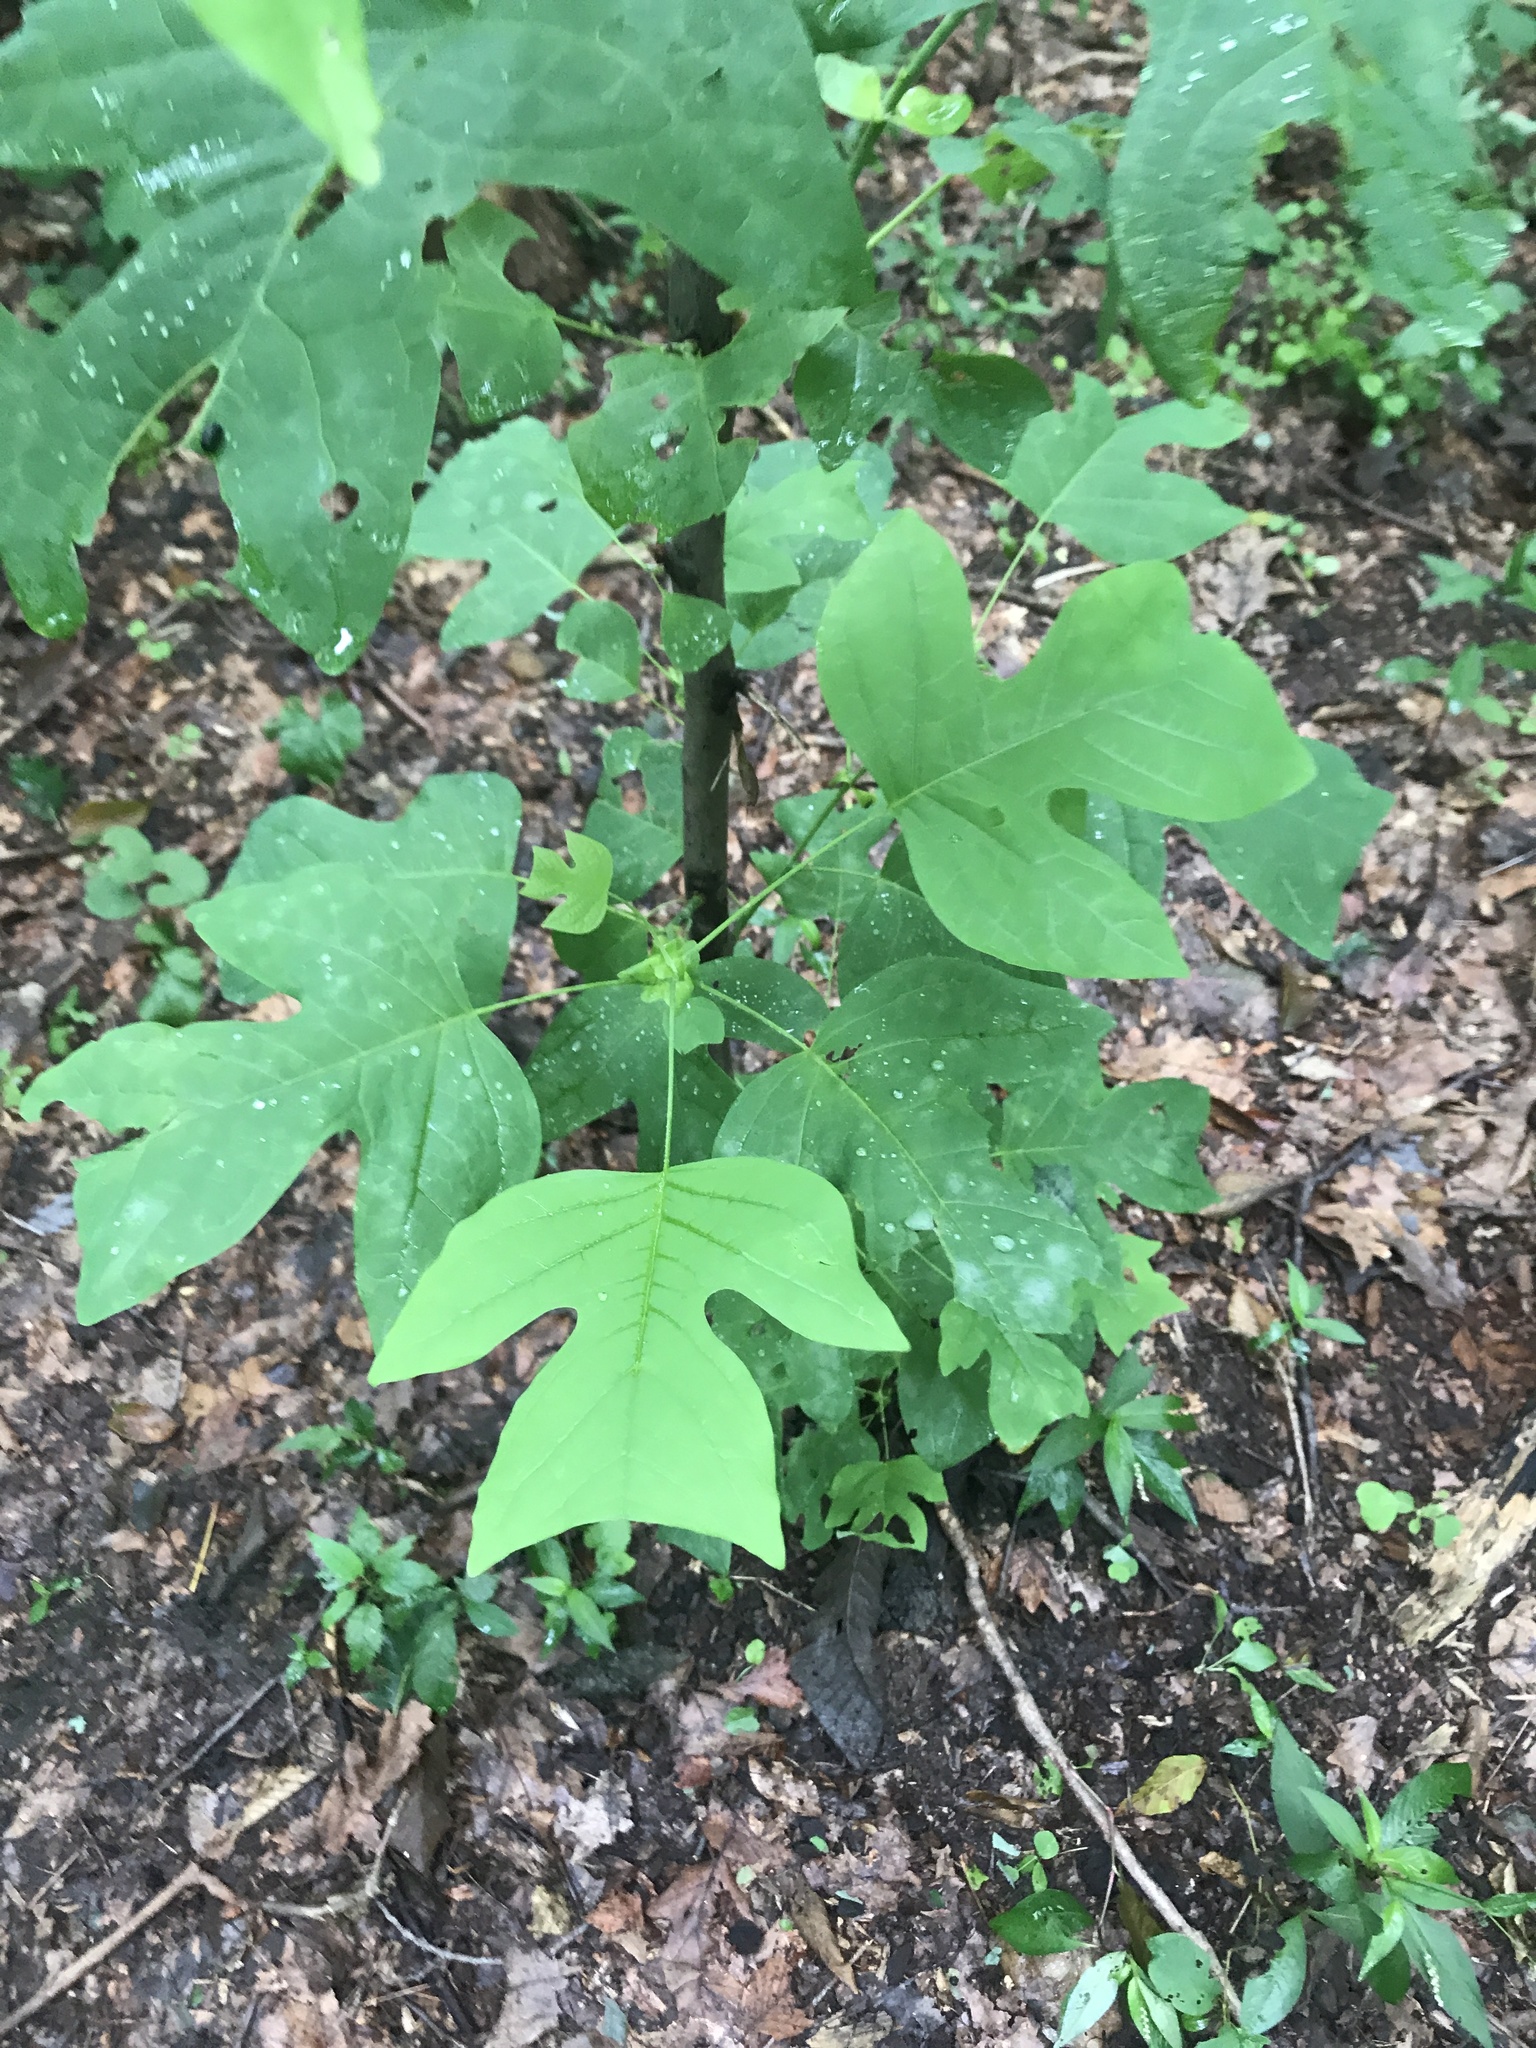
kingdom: Plantae
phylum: Tracheophyta
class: Magnoliopsida
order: Magnoliales
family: Magnoliaceae
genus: Liriodendron
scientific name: Liriodendron tulipifera
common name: Tulip tree
